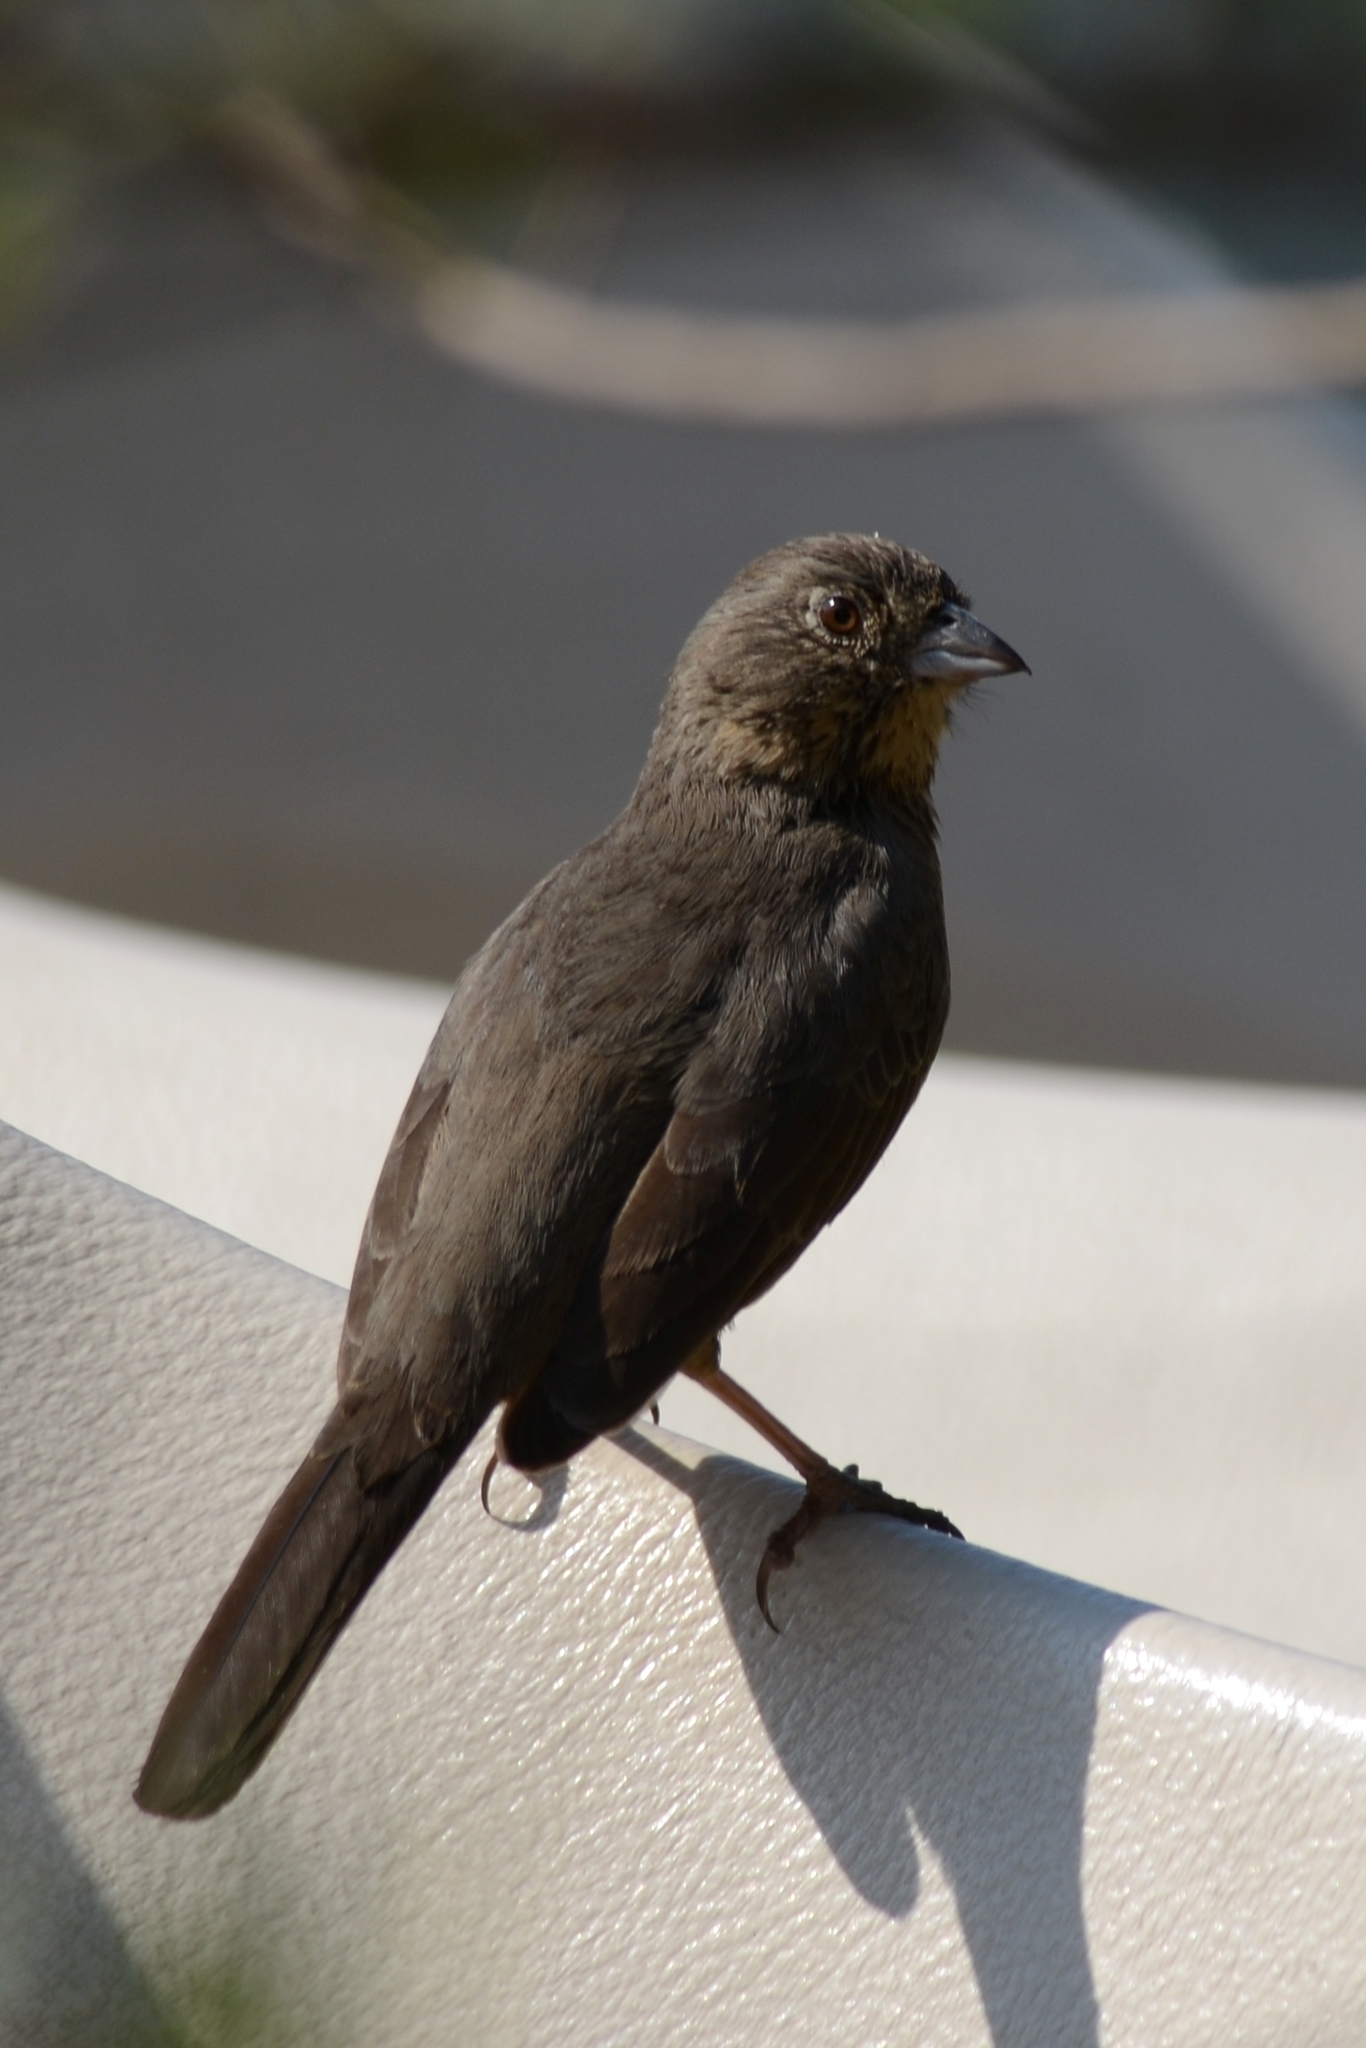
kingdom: Animalia
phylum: Chordata
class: Aves
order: Passeriformes
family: Passerellidae
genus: Melozone
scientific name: Melozone fusca
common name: Canyon towhee
